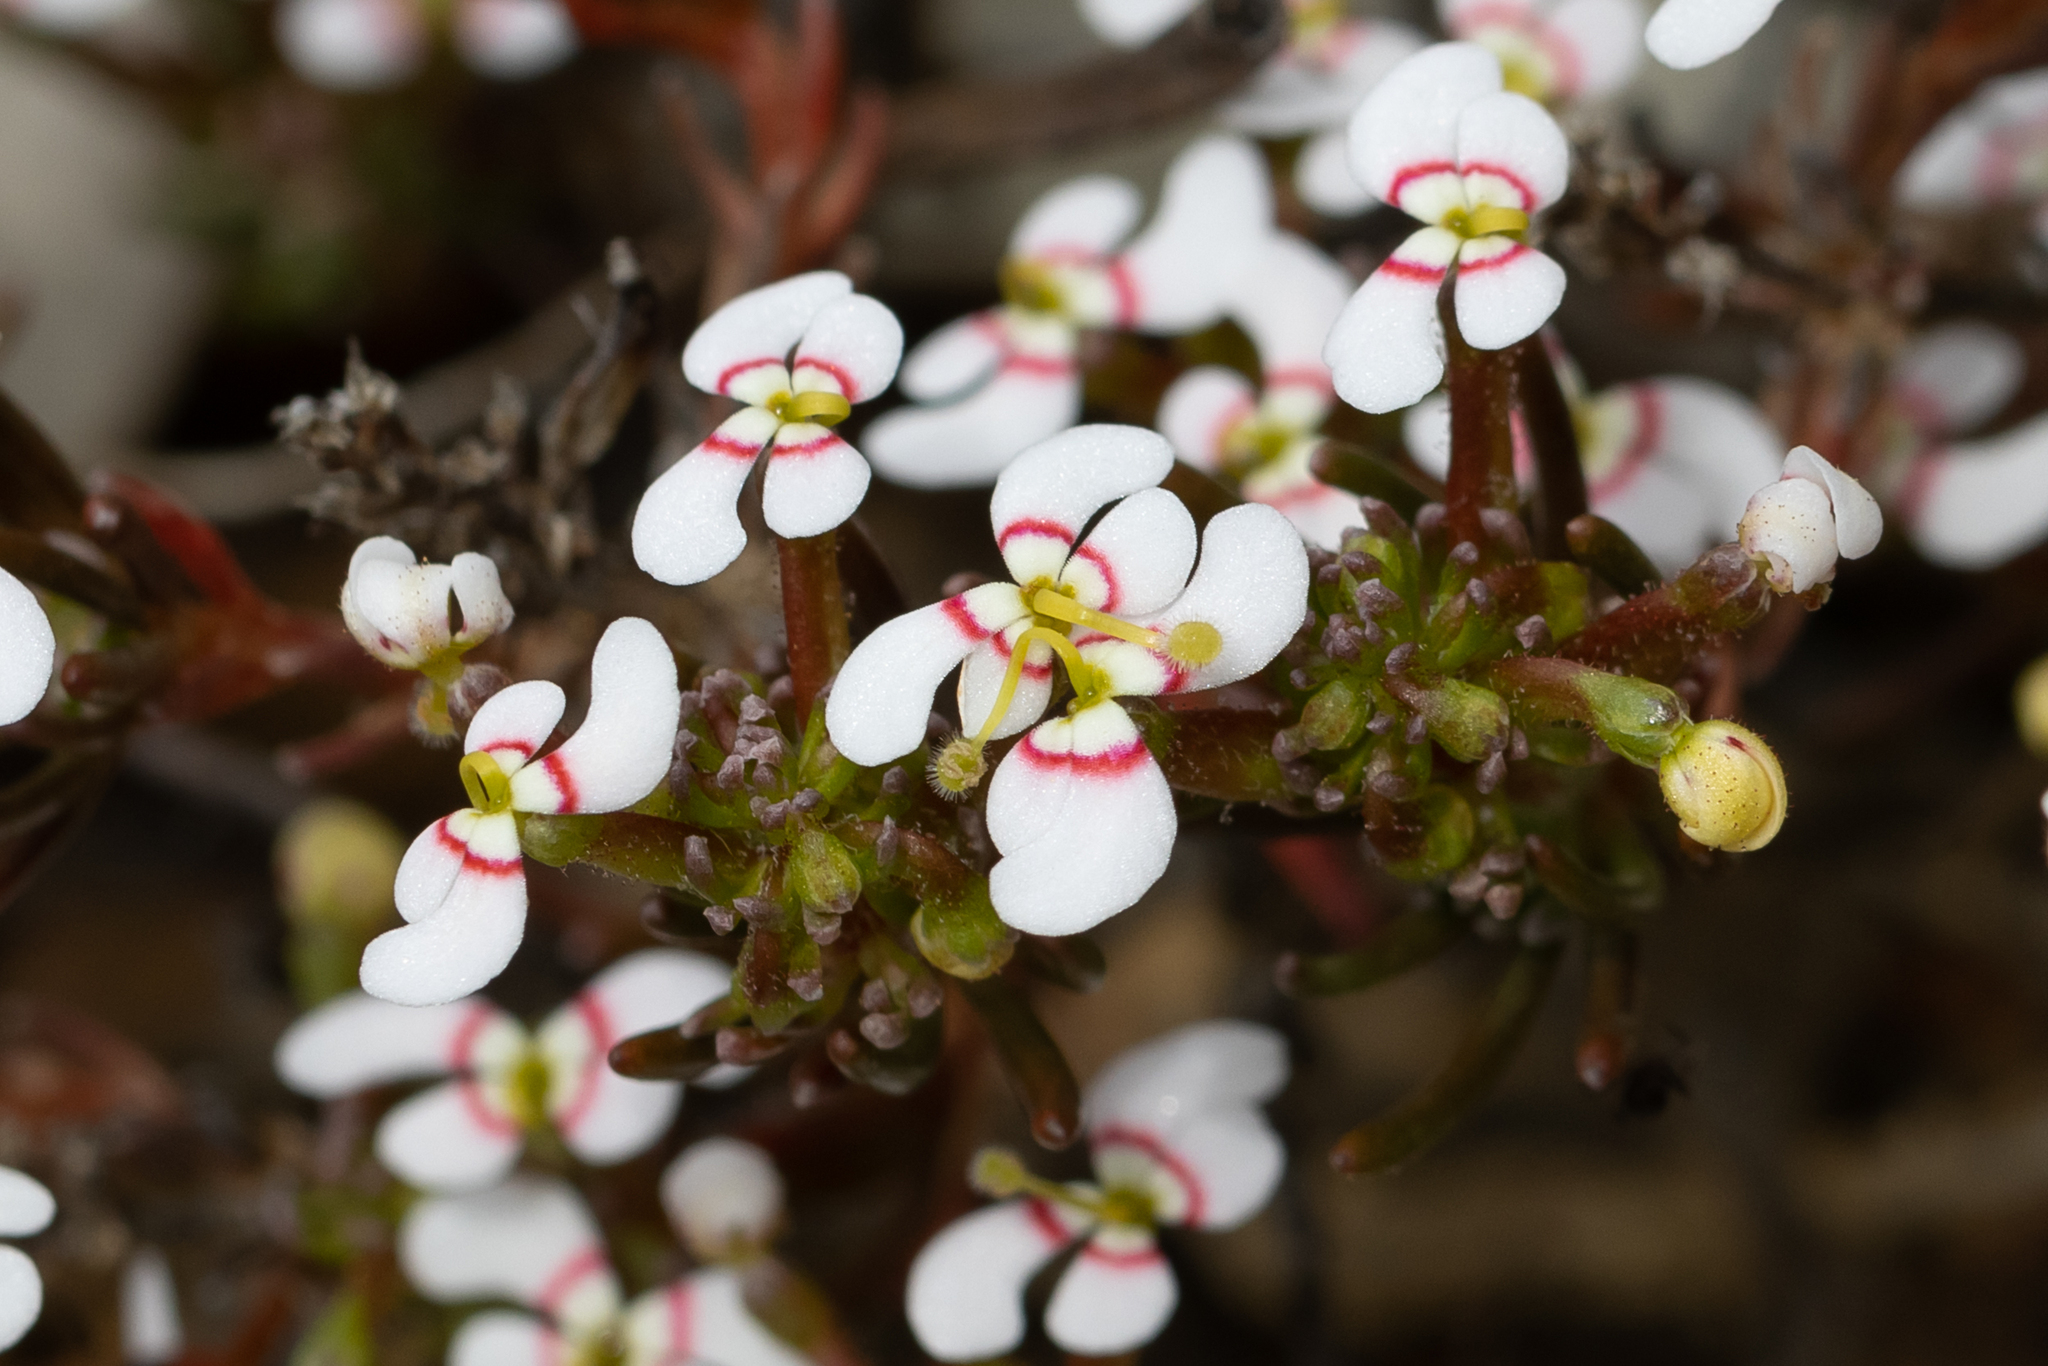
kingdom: Plantae
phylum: Tracheophyta
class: Magnoliopsida
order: Asterales
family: Stylidiaceae
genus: Stylidium
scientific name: Stylidium breviscapum
